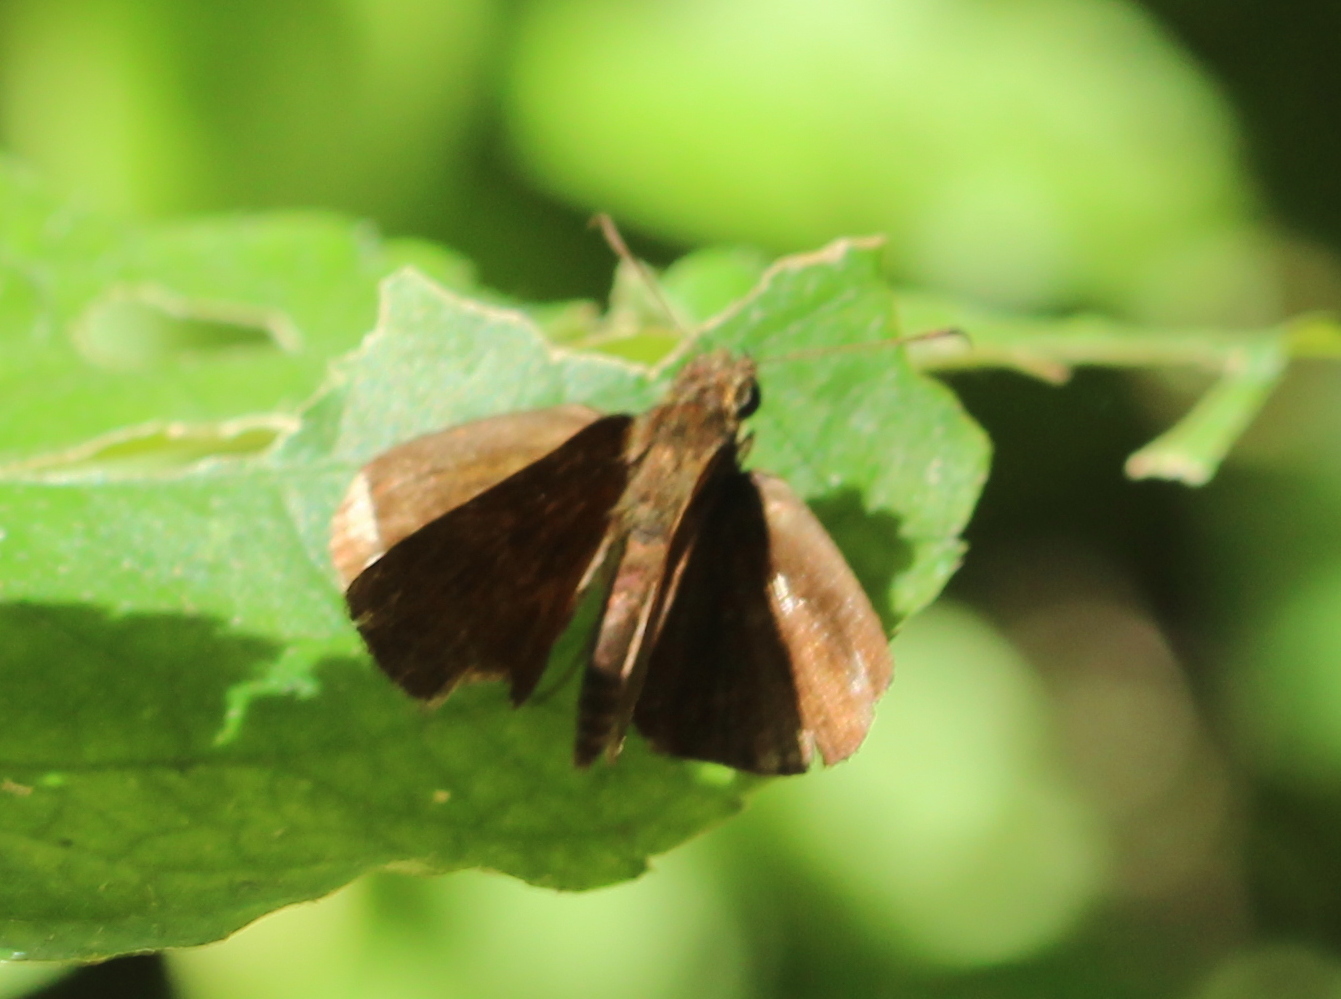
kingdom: Animalia
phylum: Arthropoda
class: Insecta
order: Lepidoptera
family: Hesperiidae
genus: Iambrix
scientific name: Iambrix salsala
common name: Chestnut bob
